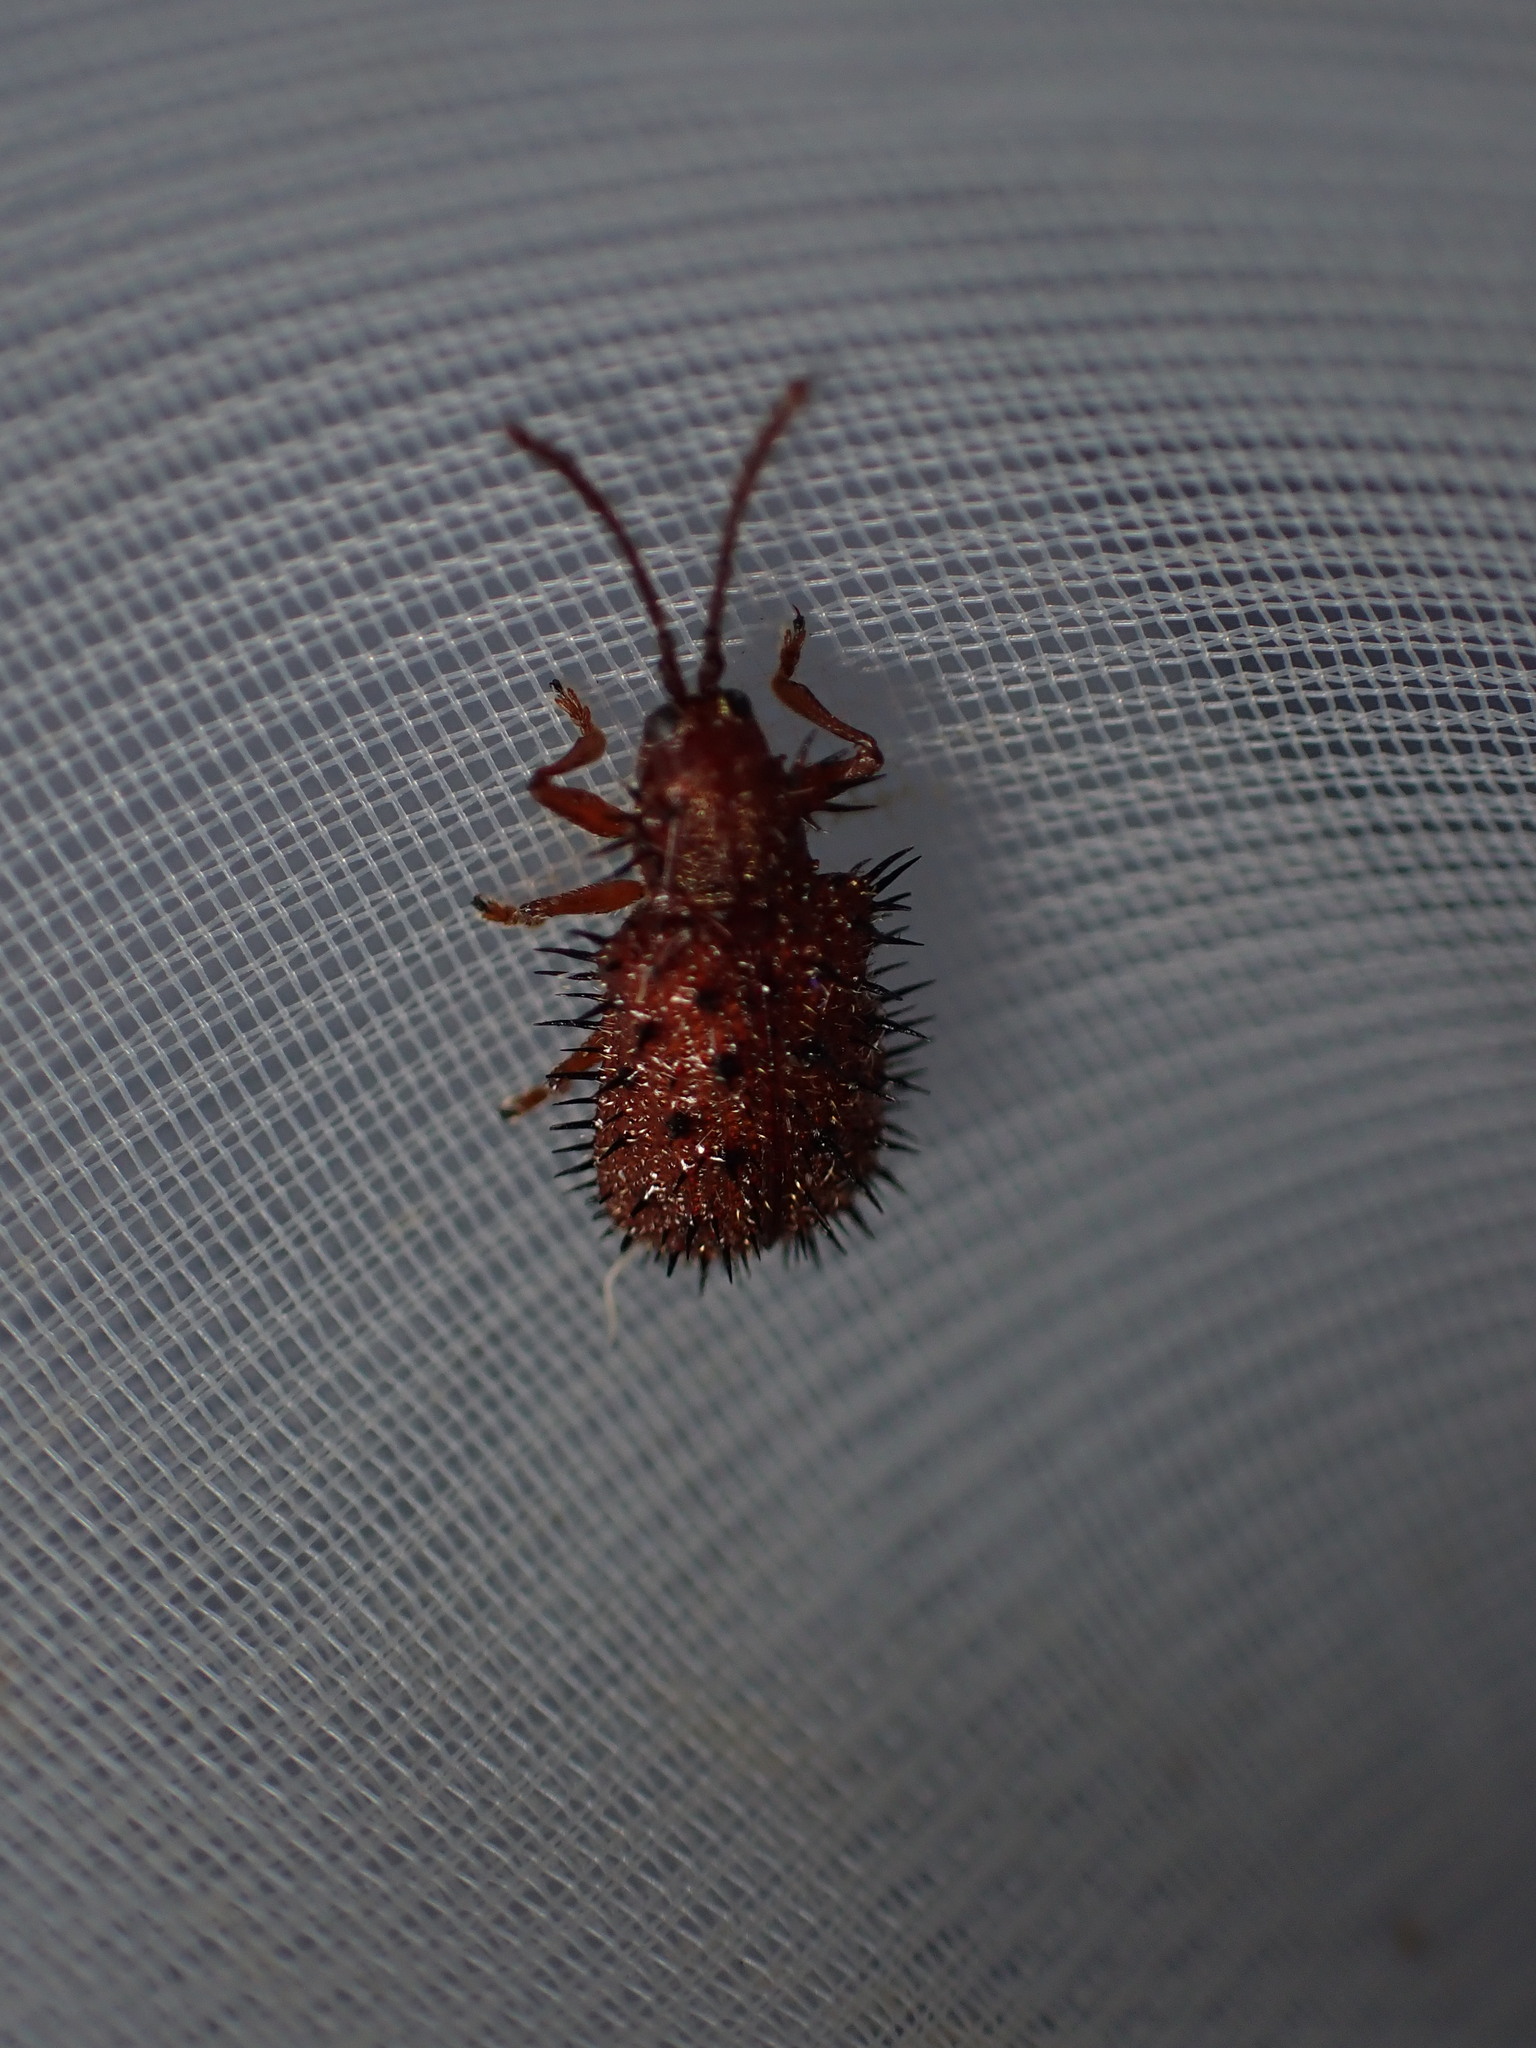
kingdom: Animalia
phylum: Arthropoda
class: Insecta
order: Coleoptera
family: Chrysomelidae
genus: Dicladispa
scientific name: Dicladispa testacea
